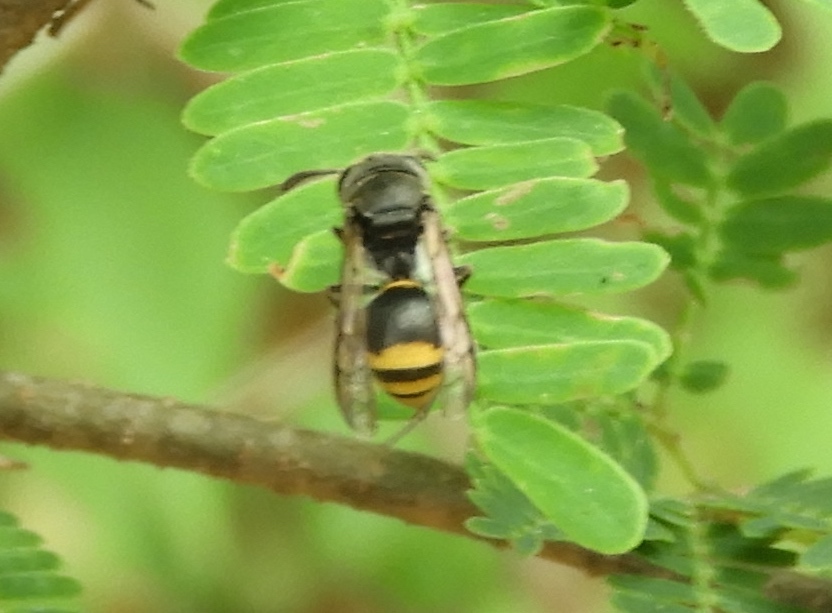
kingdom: Animalia
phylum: Arthropoda
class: Insecta
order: Hymenoptera
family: Vespidae
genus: Brachygastra
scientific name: Brachygastra azteca
